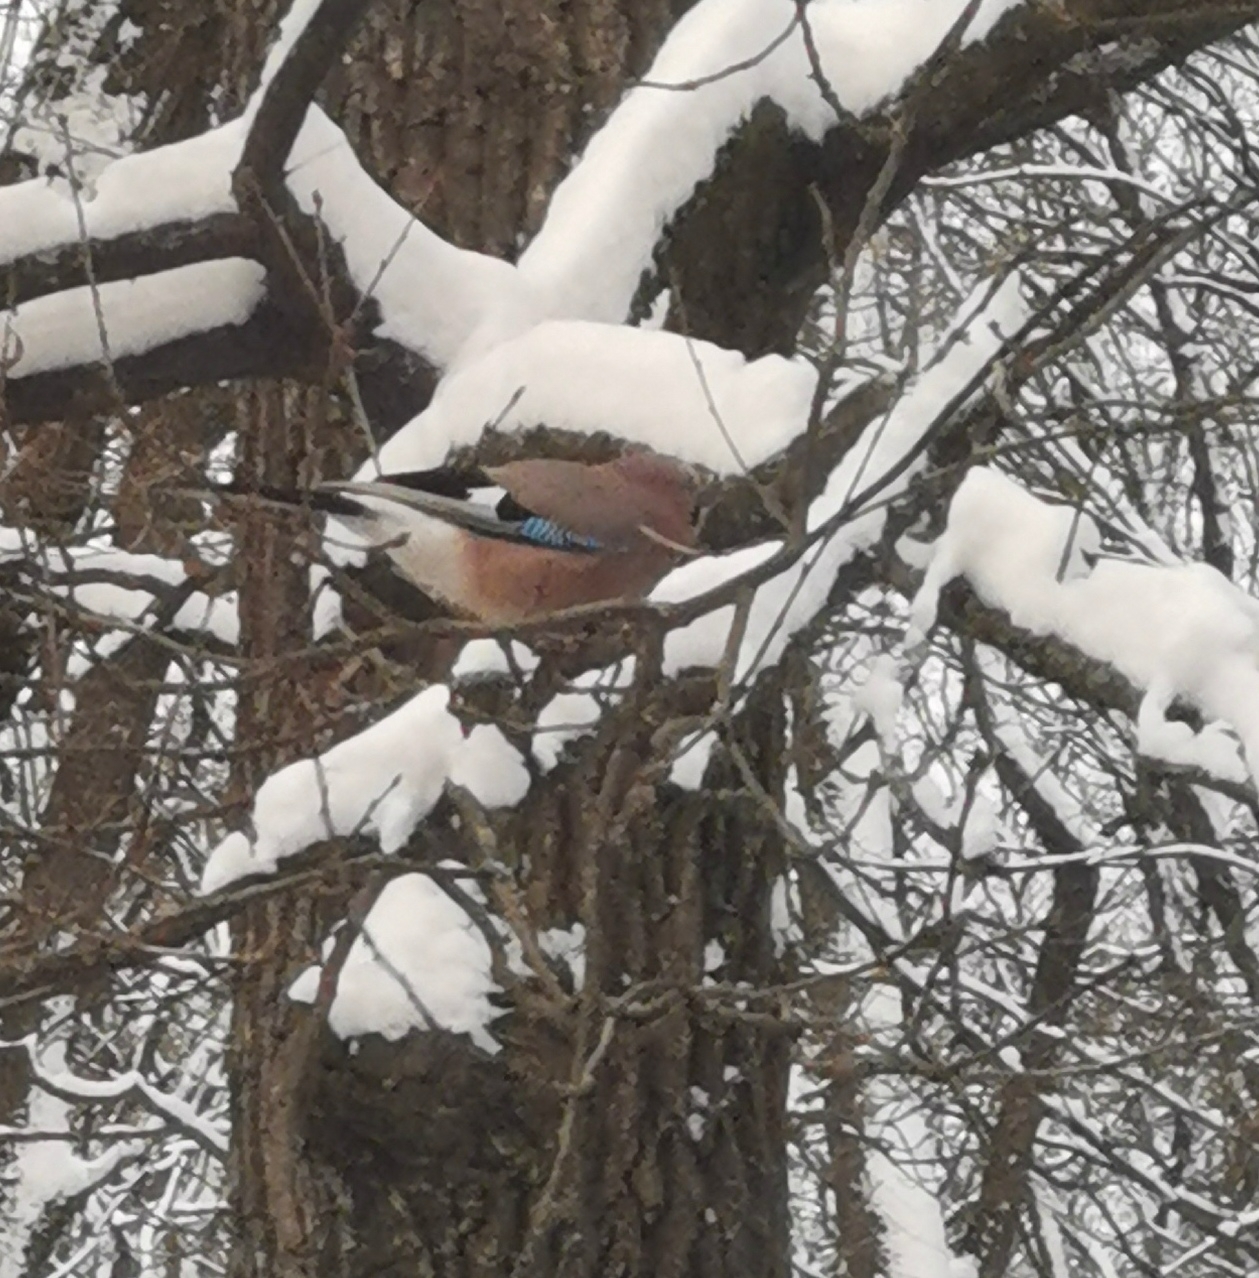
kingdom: Animalia
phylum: Chordata
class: Aves
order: Passeriformes
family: Corvidae
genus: Garrulus
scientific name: Garrulus glandarius
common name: Eurasian jay
